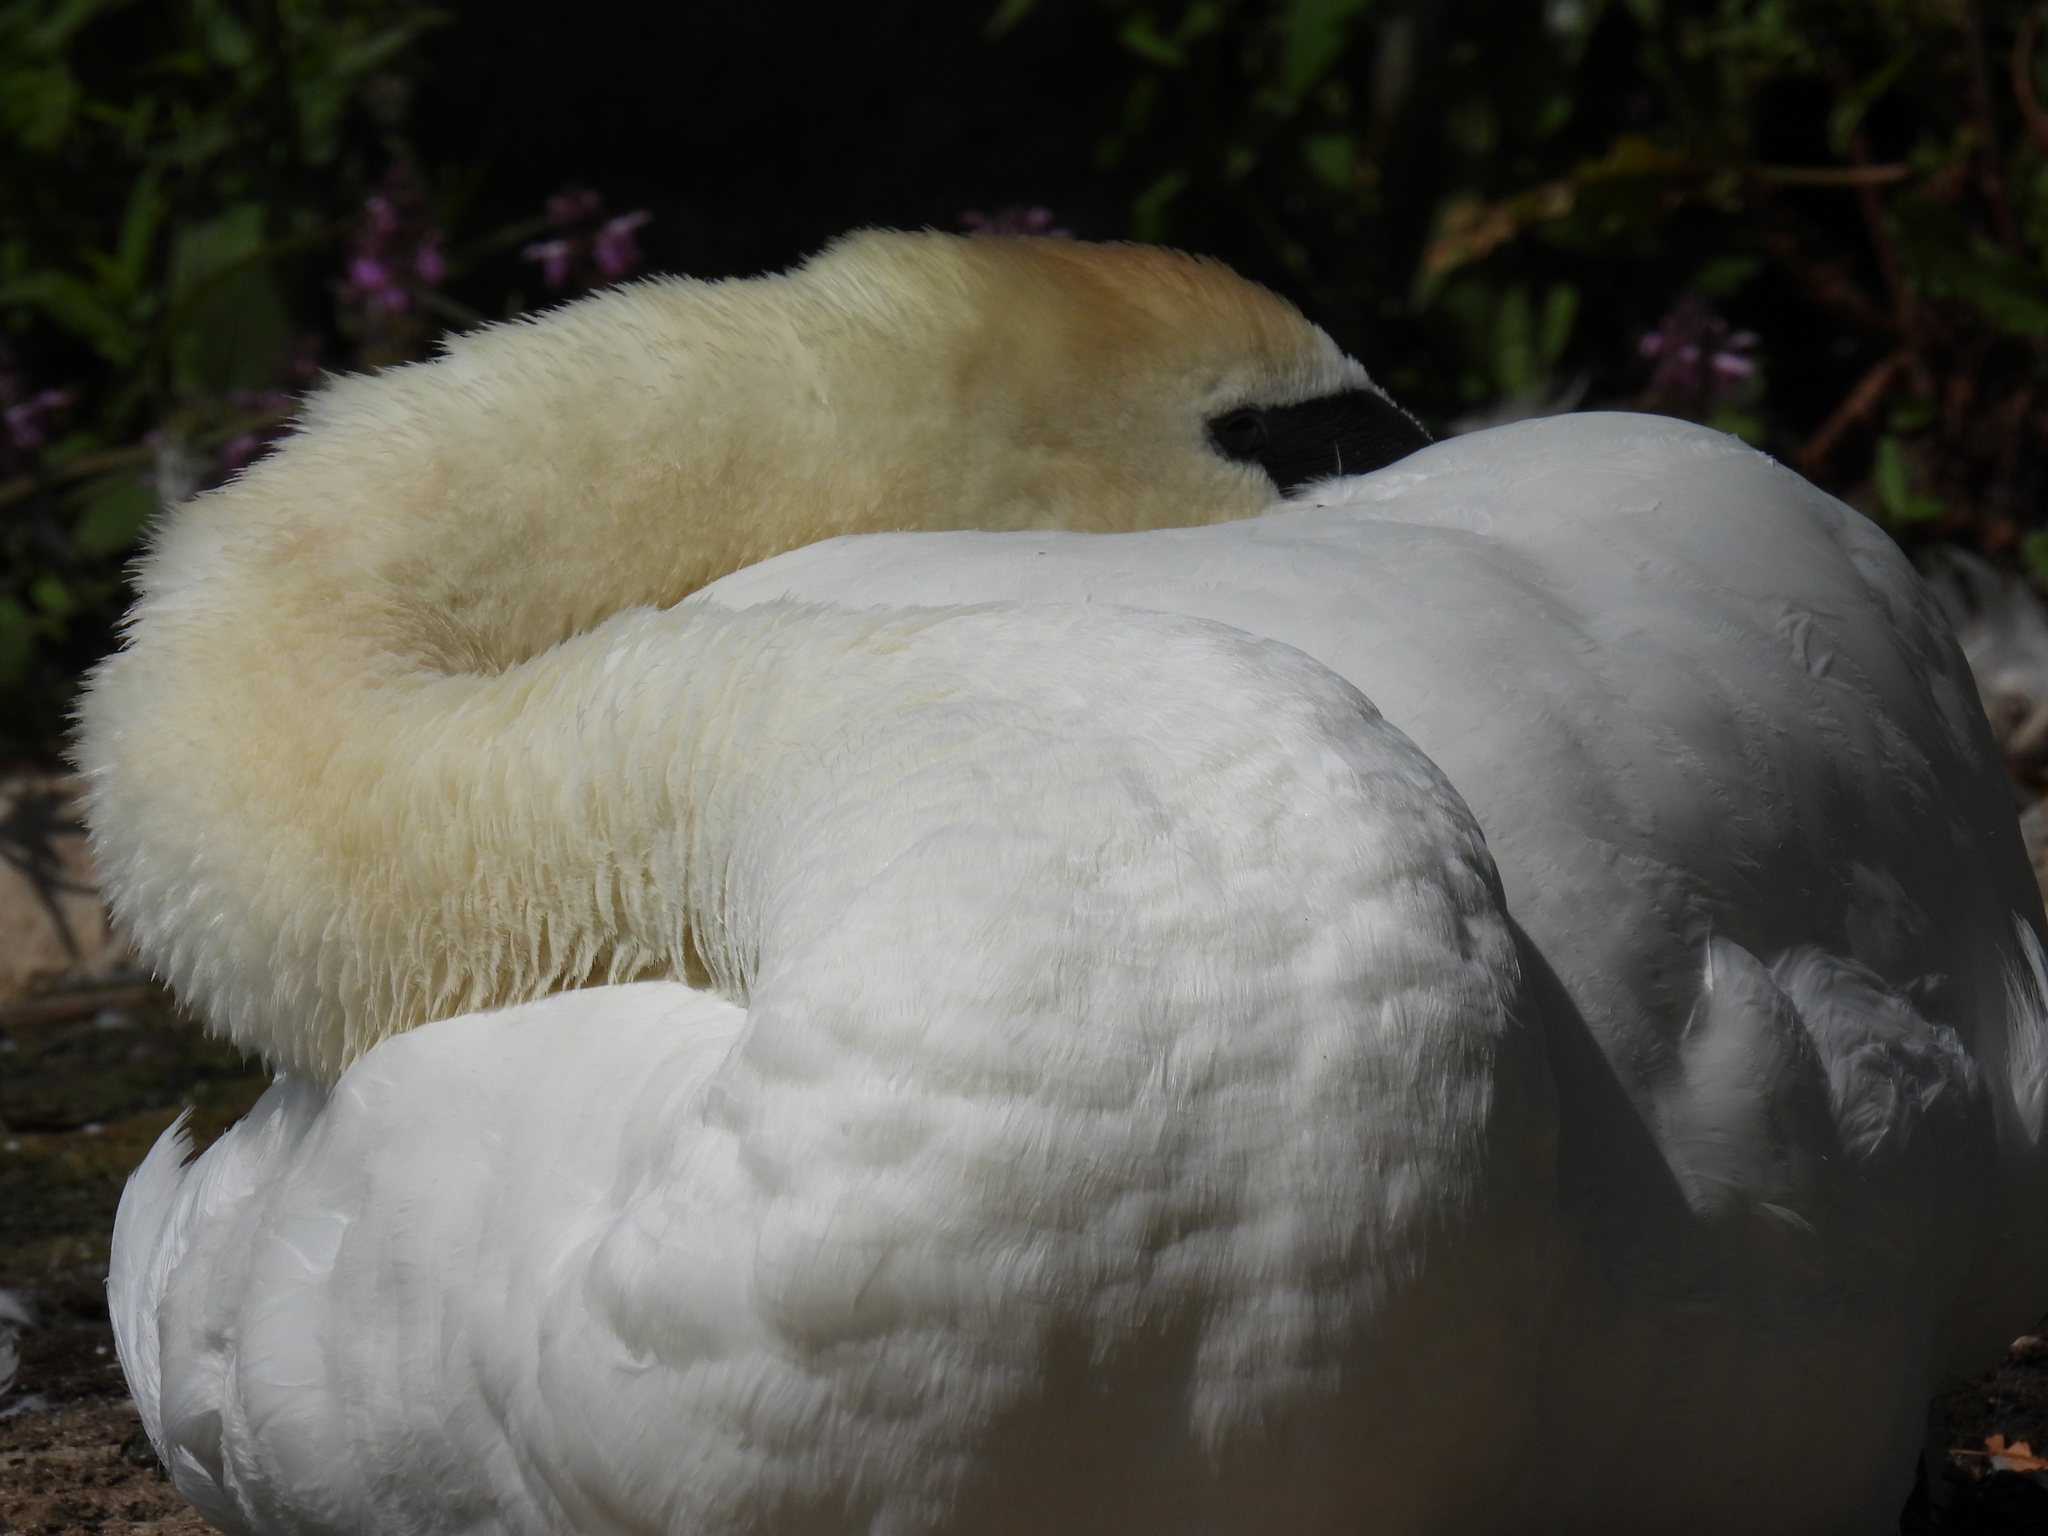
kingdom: Animalia
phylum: Chordata
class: Aves
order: Anseriformes
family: Anatidae
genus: Cygnus
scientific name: Cygnus olor
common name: Mute swan
